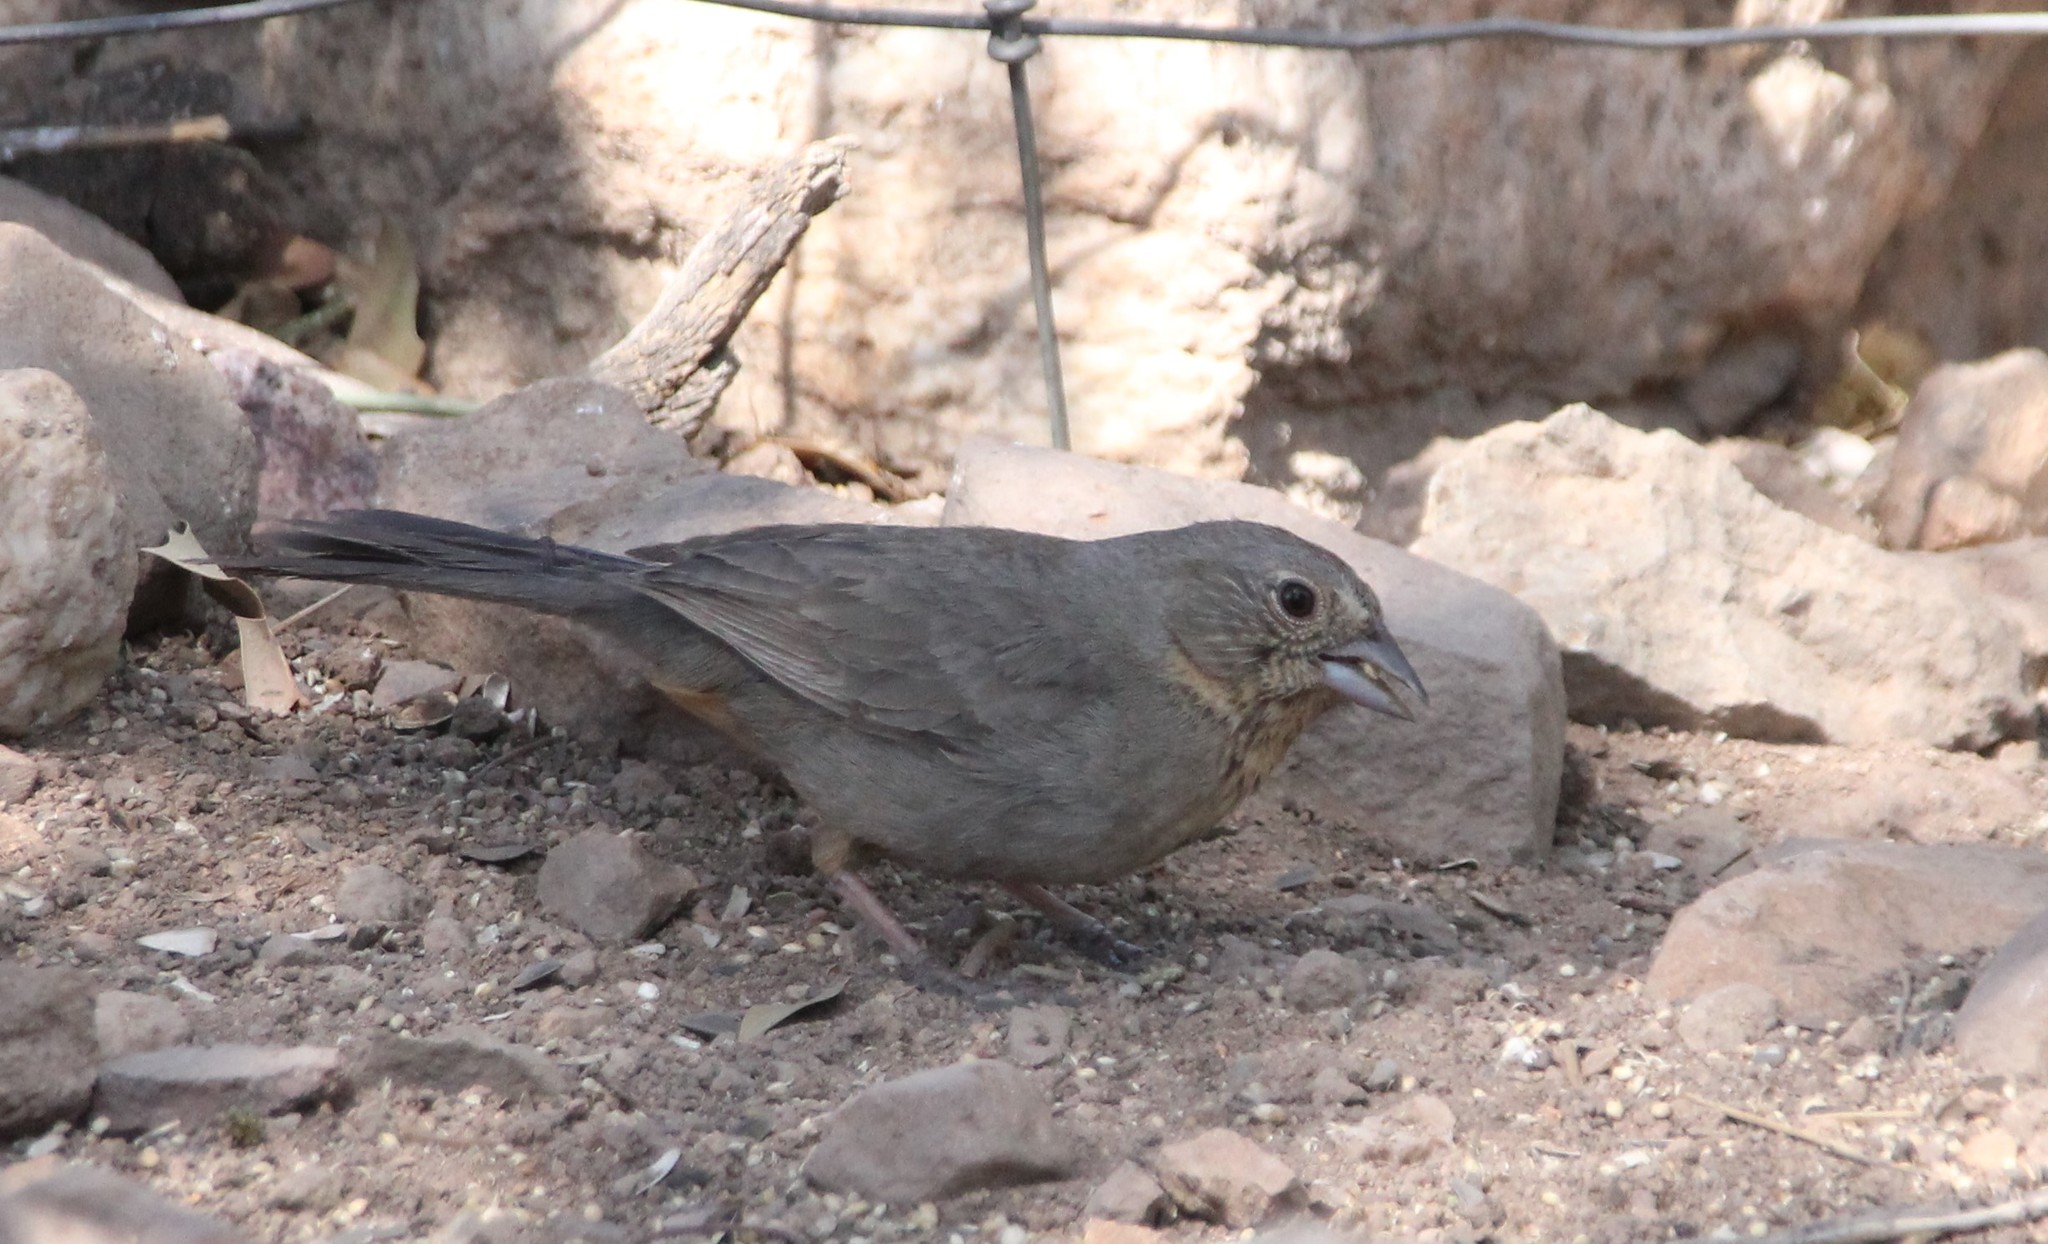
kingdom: Animalia
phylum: Chordata
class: Aves
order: Passeriformes
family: Passerellidae
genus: Melozone
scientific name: Melozone fusca
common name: Canyon towhee
